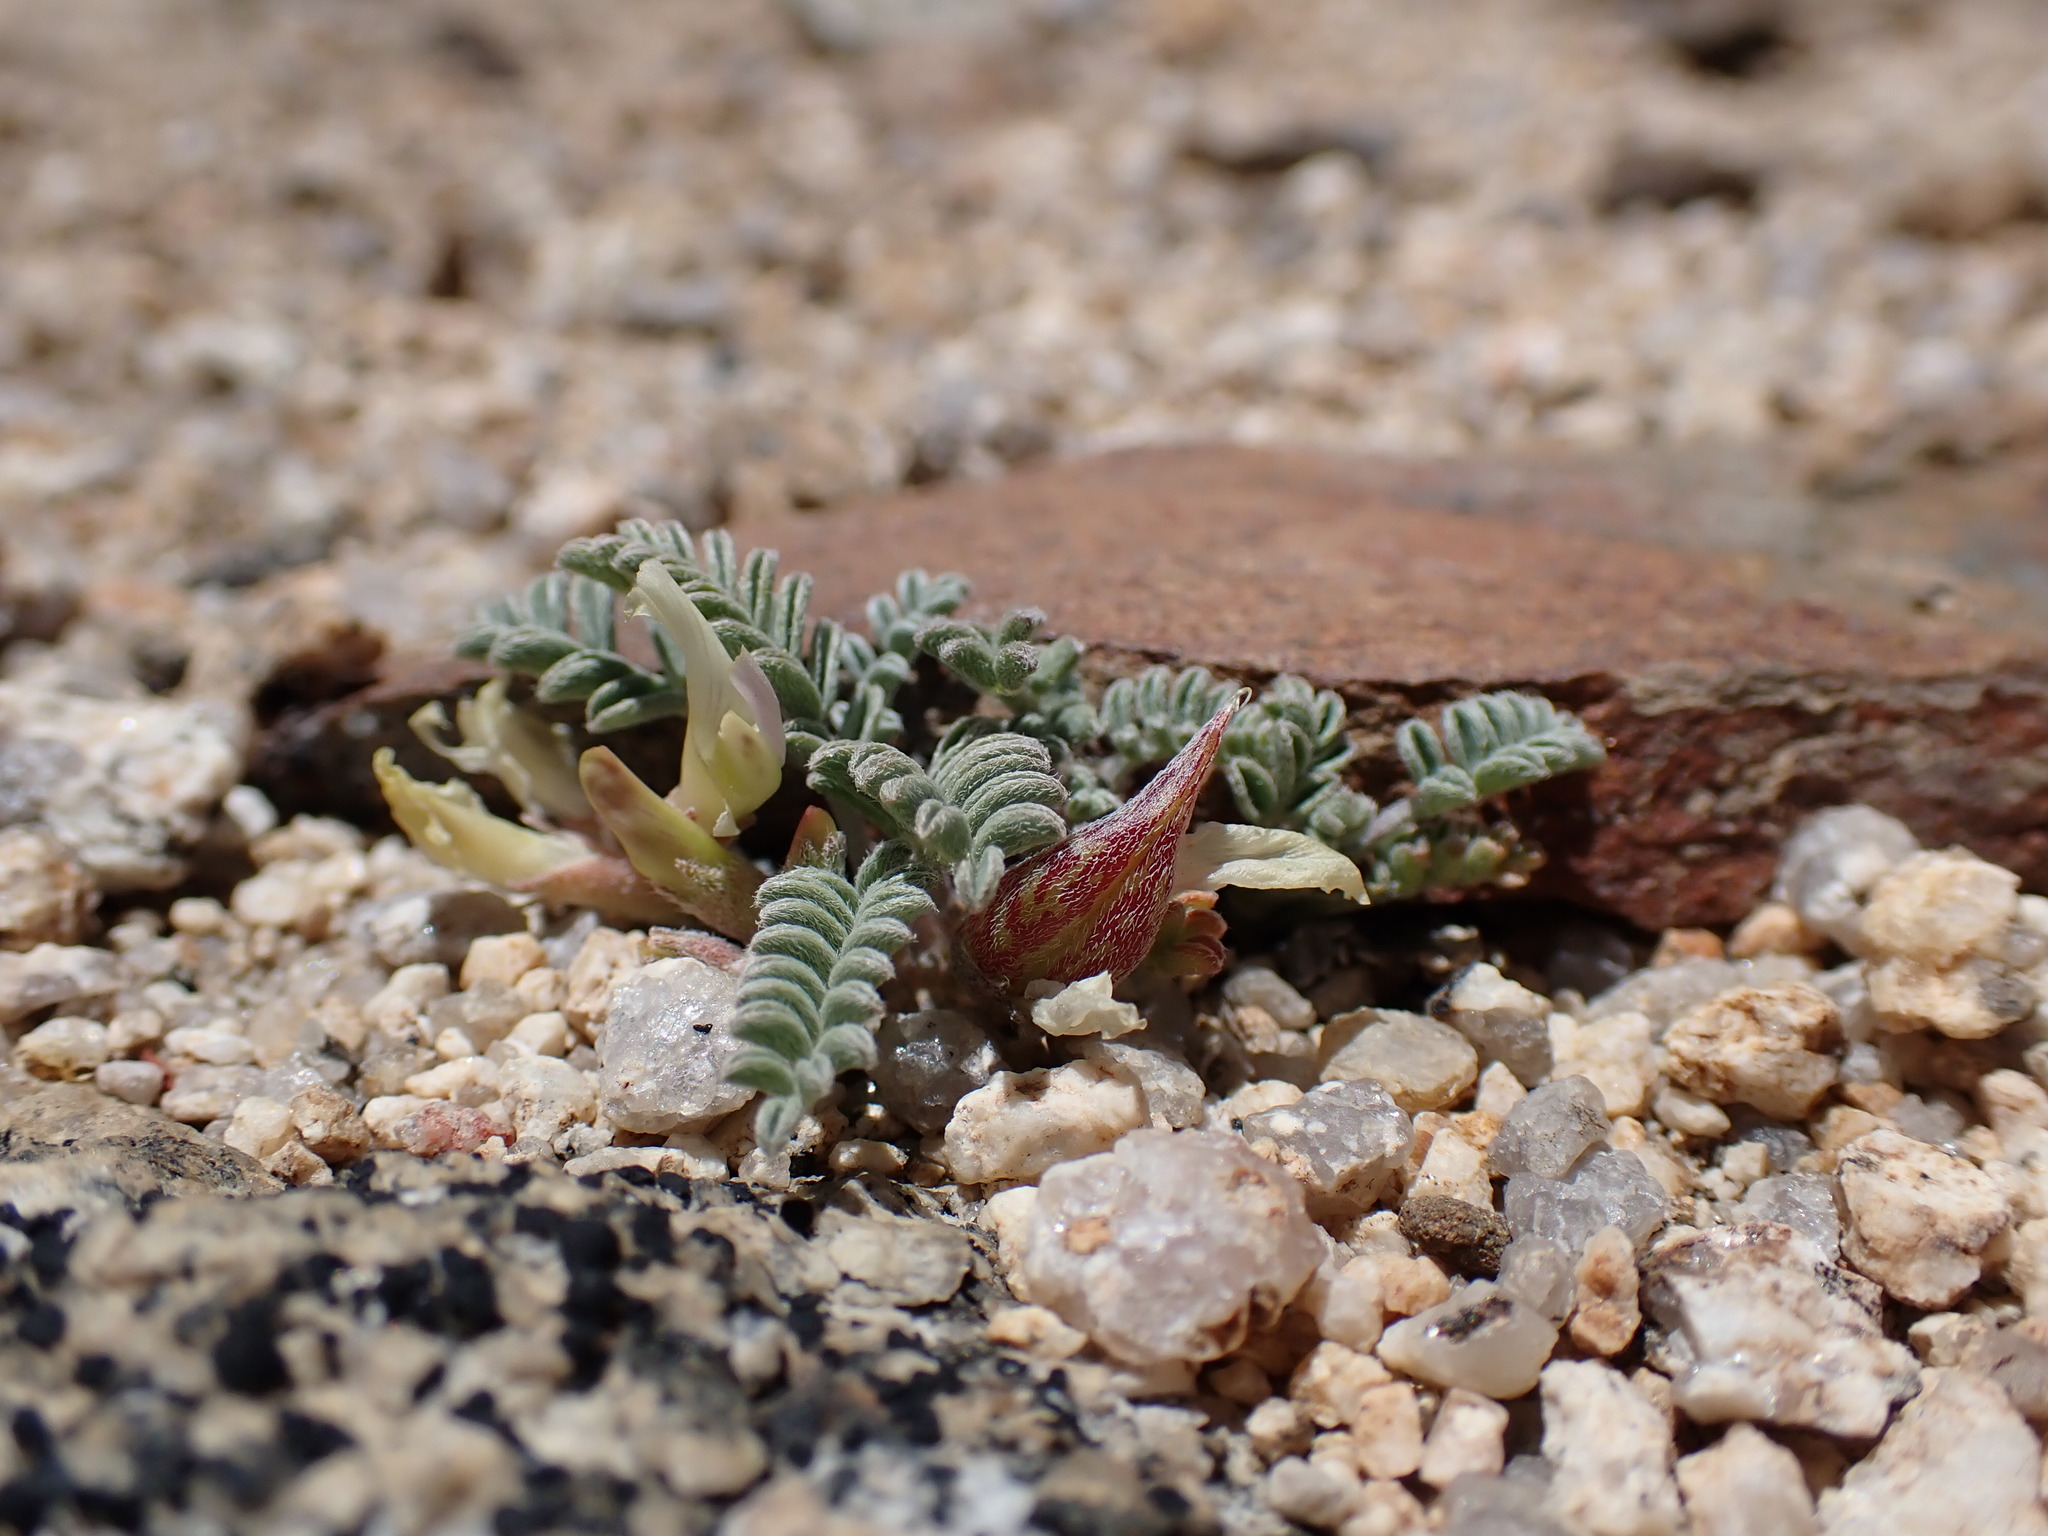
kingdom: Plantae
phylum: Tracheophyta
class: Magnoliopsida
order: Fabales
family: Fabaceae
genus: Astragalus
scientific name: Astragalus lentiginosus
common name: Freckled milkvetch
